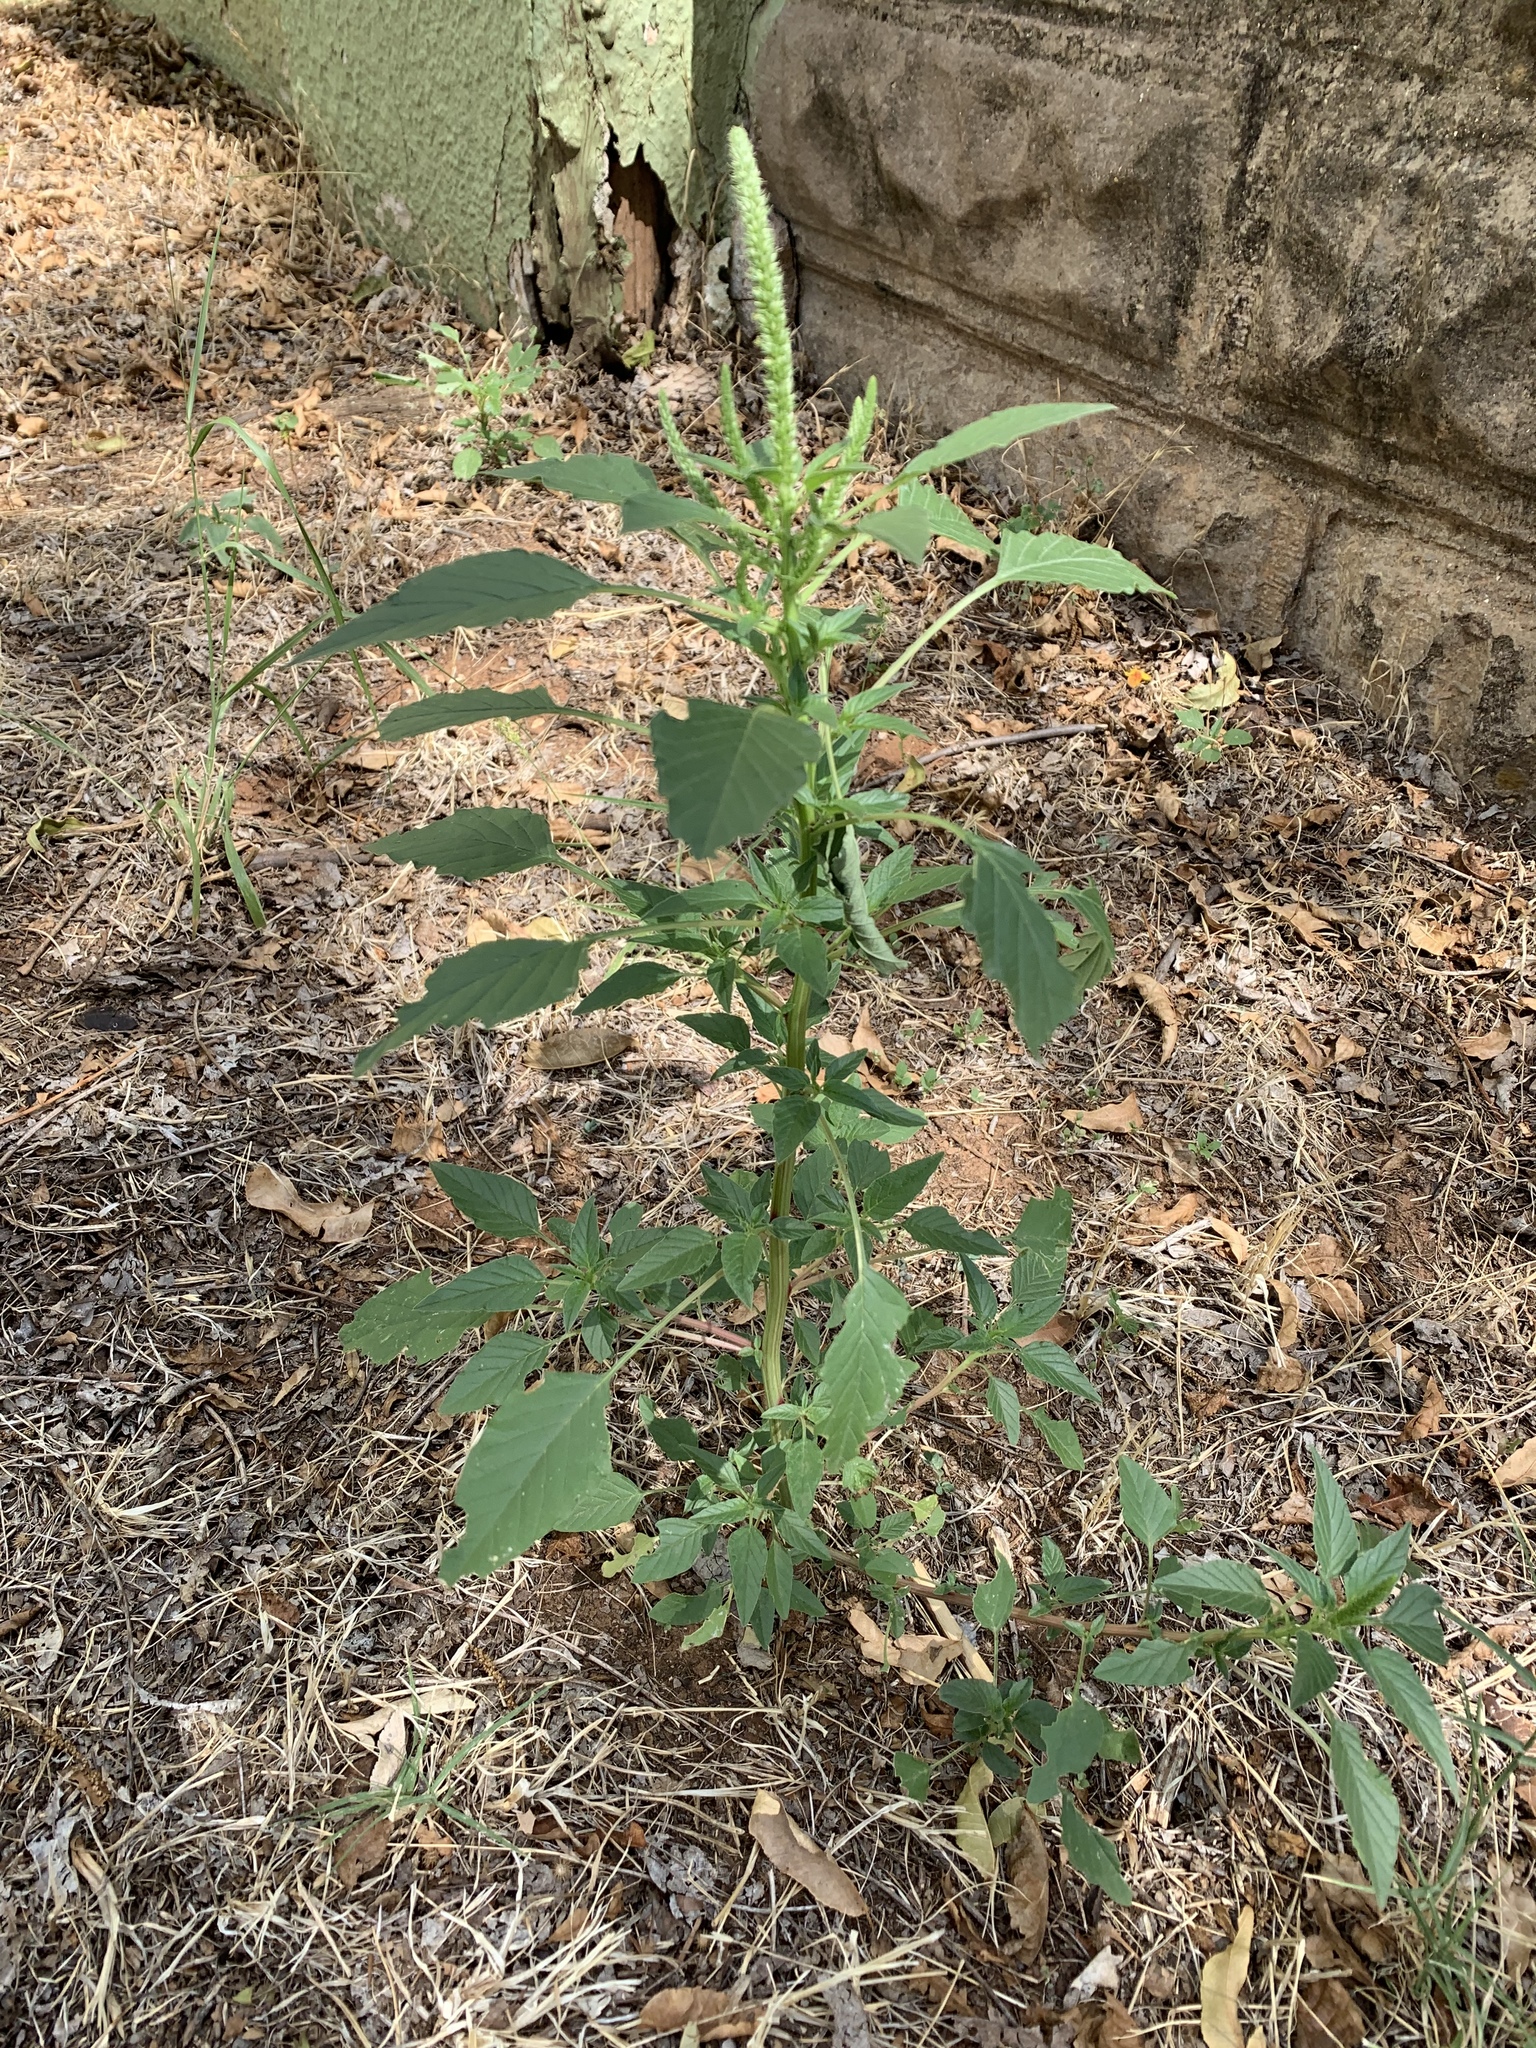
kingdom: Plantae
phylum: Tracheophyta
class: Magnoliopsida
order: Caryophyllales
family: Amaranthaceae
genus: Amaranthus
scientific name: Amaranthus palmeri
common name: Dioecious amaranth
